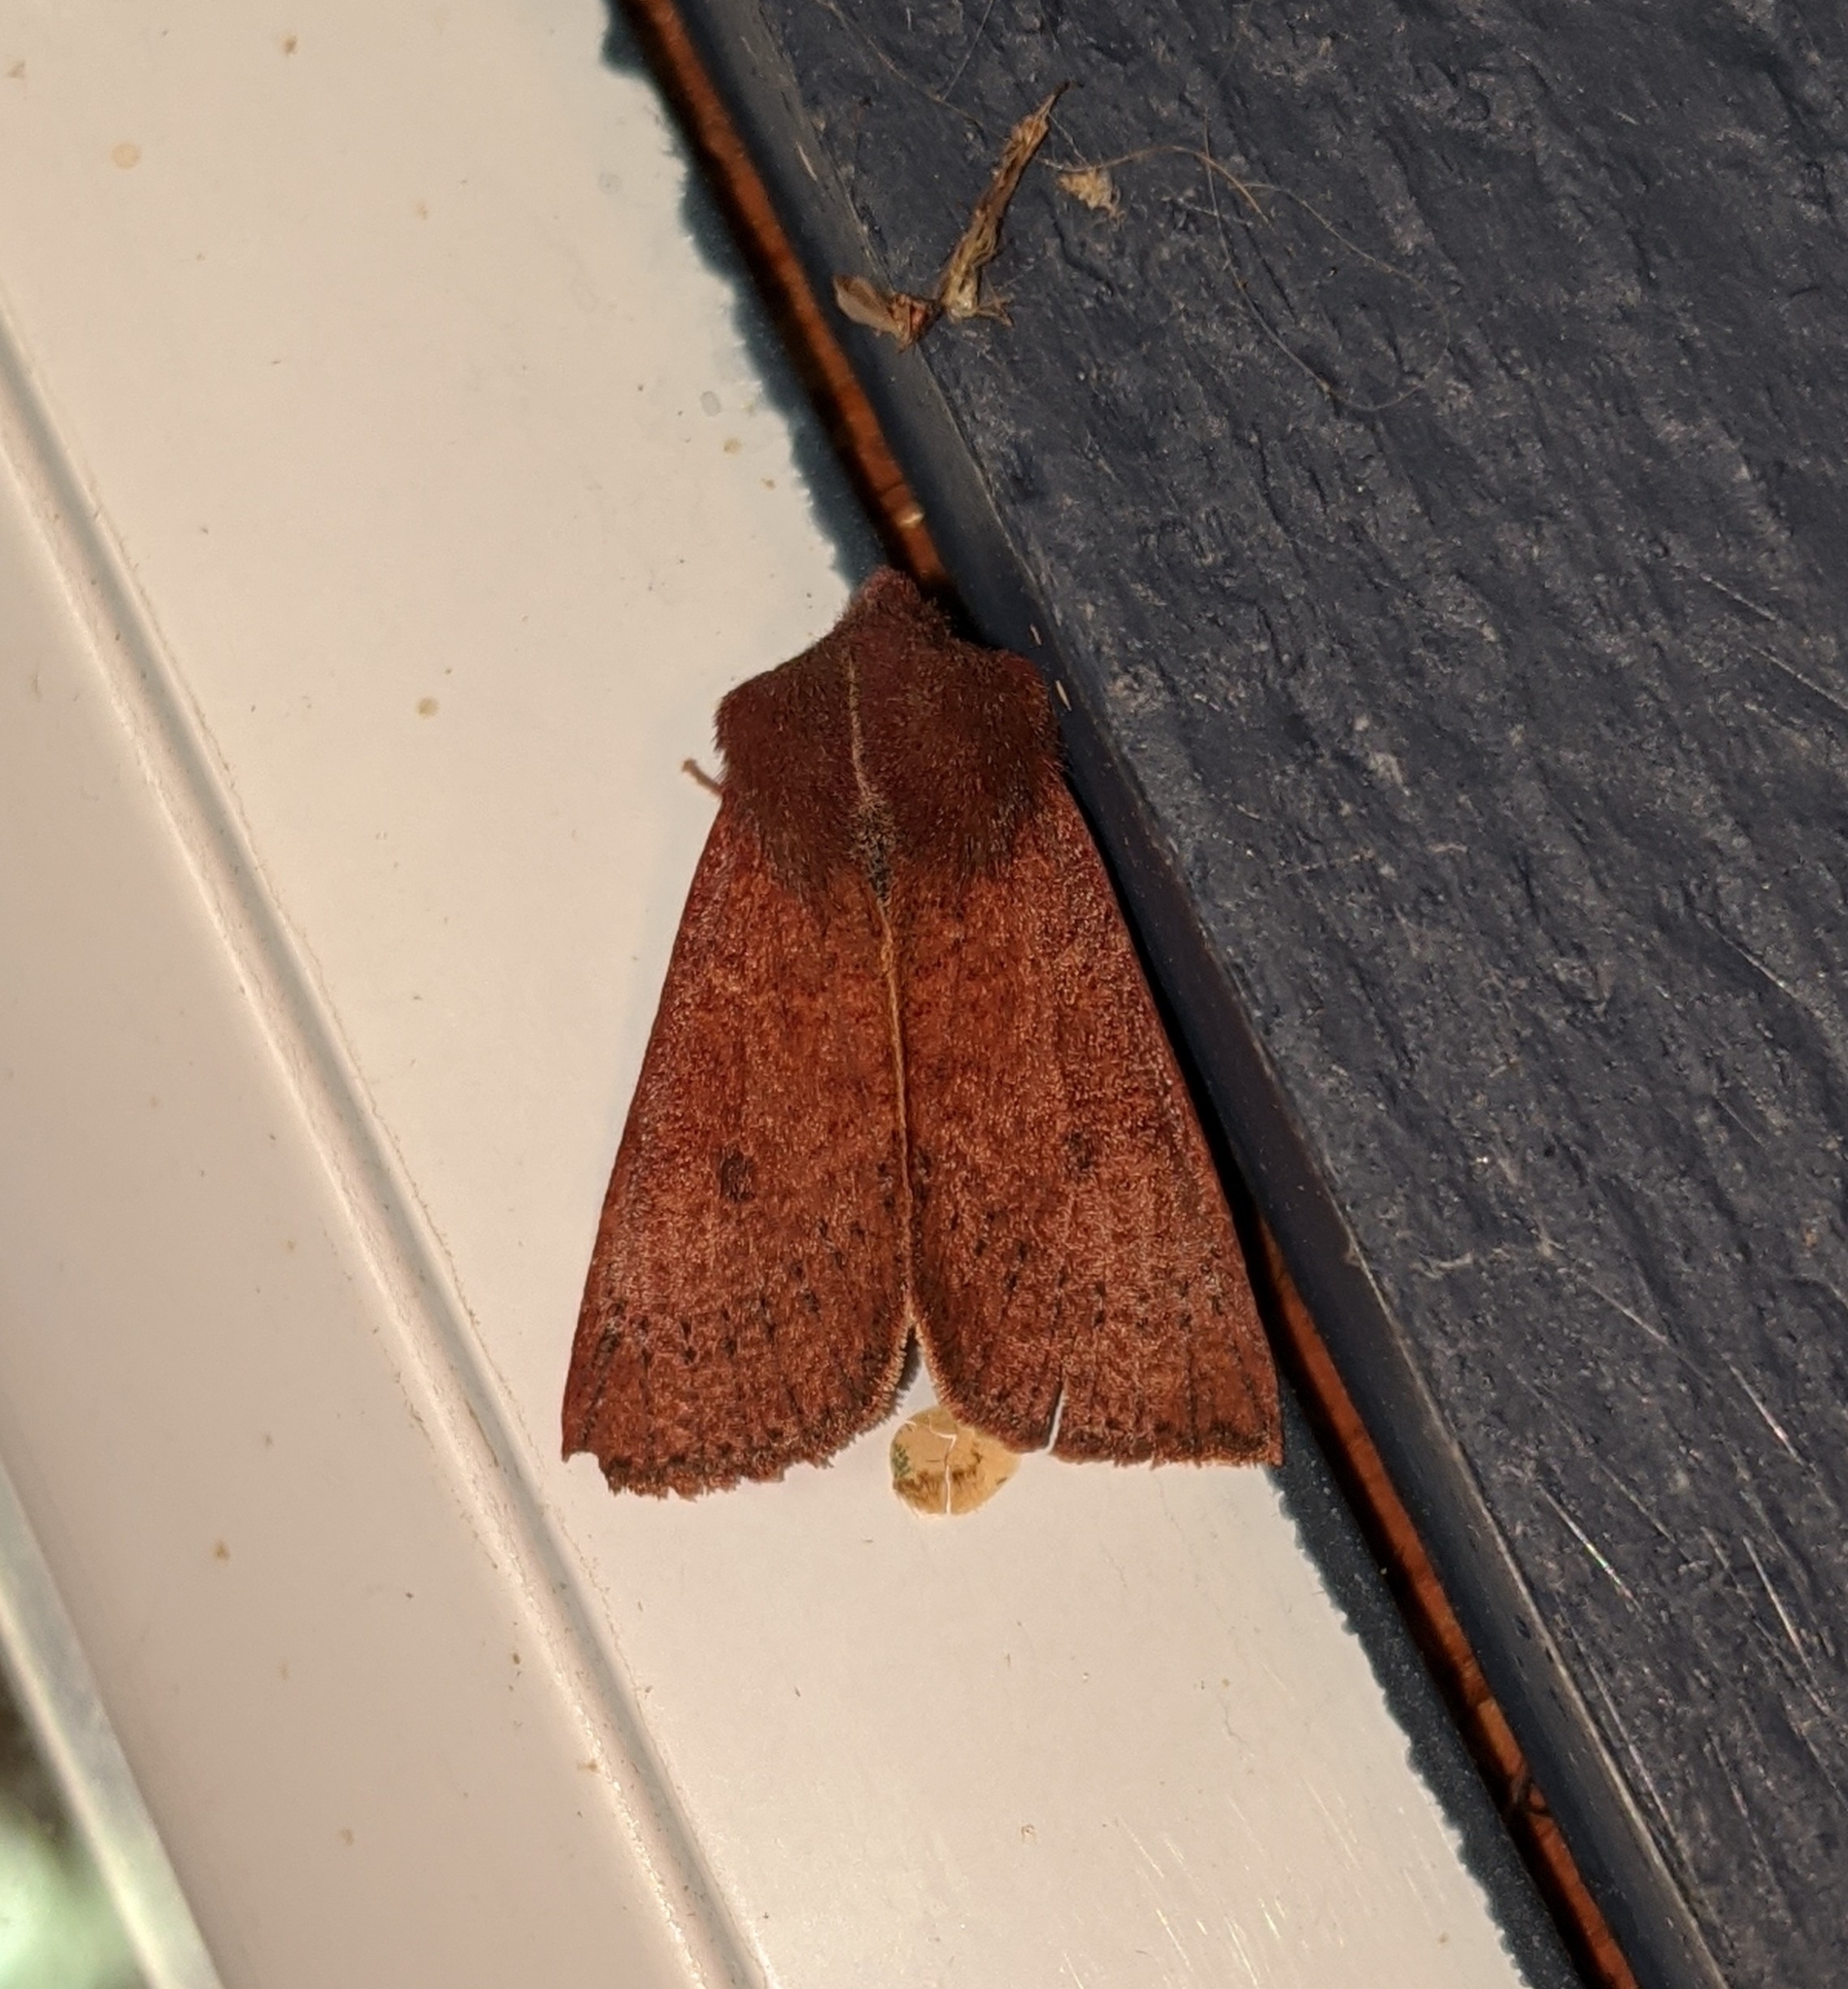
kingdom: Animalia
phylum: Arthropoda
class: Insecta
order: Lepidoptera
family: Noctuidae
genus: Orthosia
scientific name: Orthosia transparens
